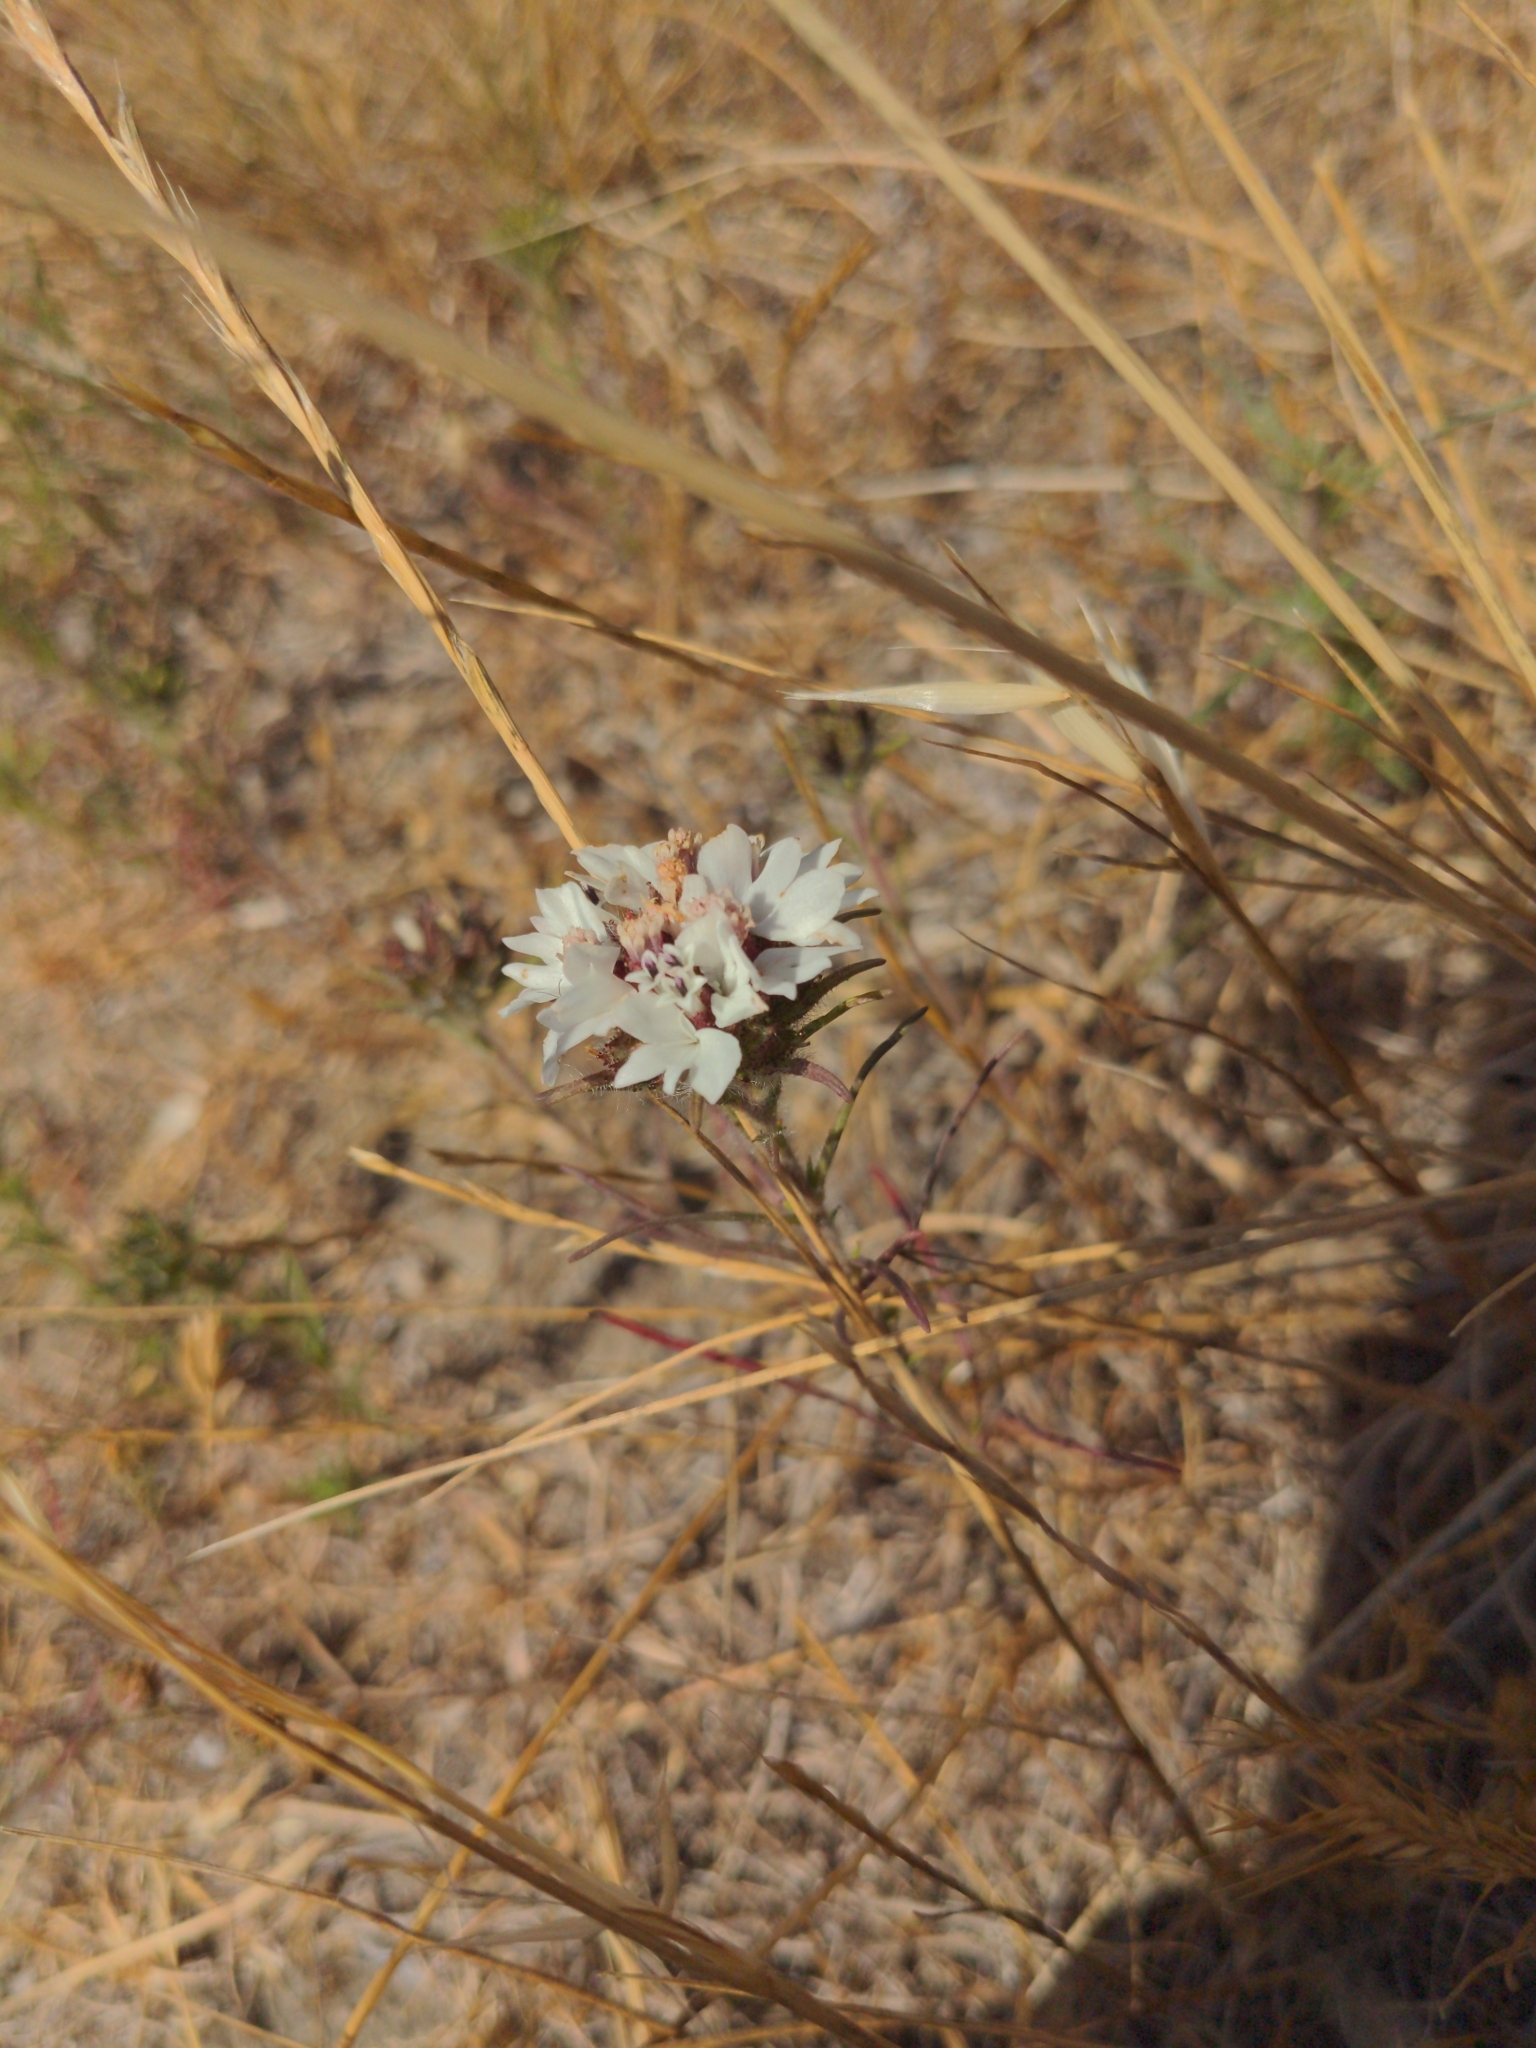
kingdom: Plantae
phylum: Tracheophyta
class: Magnoliopsida
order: Asterales
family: Asteraceae
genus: Calycadenia
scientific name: Calycadenia multiglandulosa
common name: Sticky calycadenia
